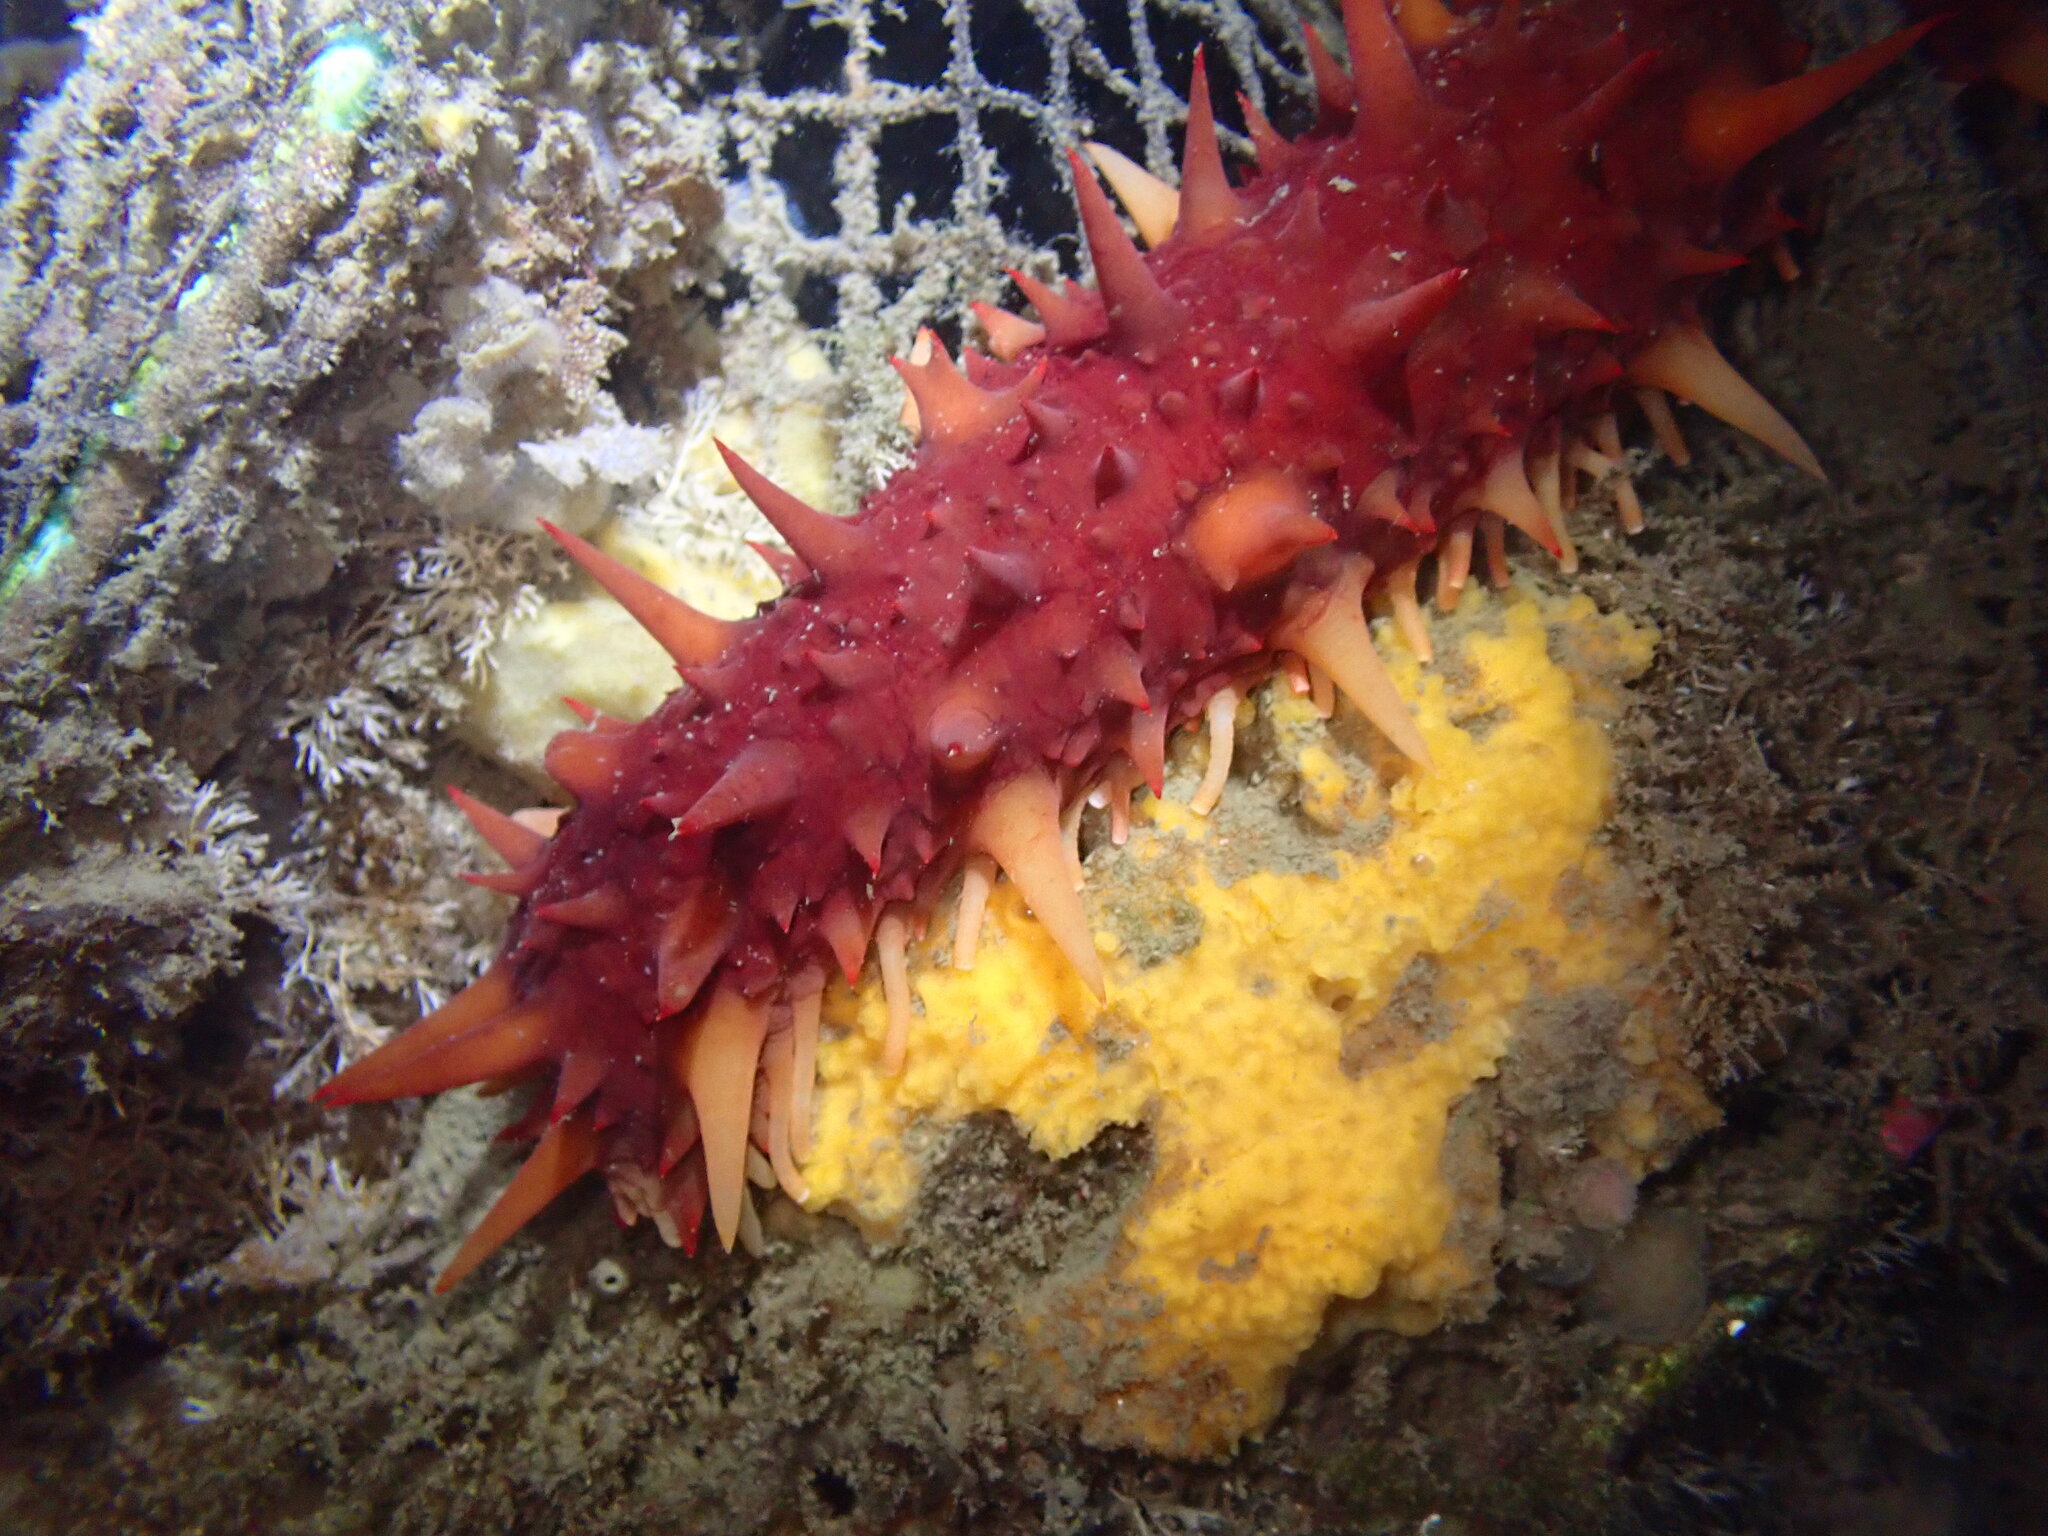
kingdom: Animalia
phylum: Echinodermata
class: Holothuroidea
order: Synallactida
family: Stichopodidae
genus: Apostichopus
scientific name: Apostichopus californicus
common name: California sea cucumber
